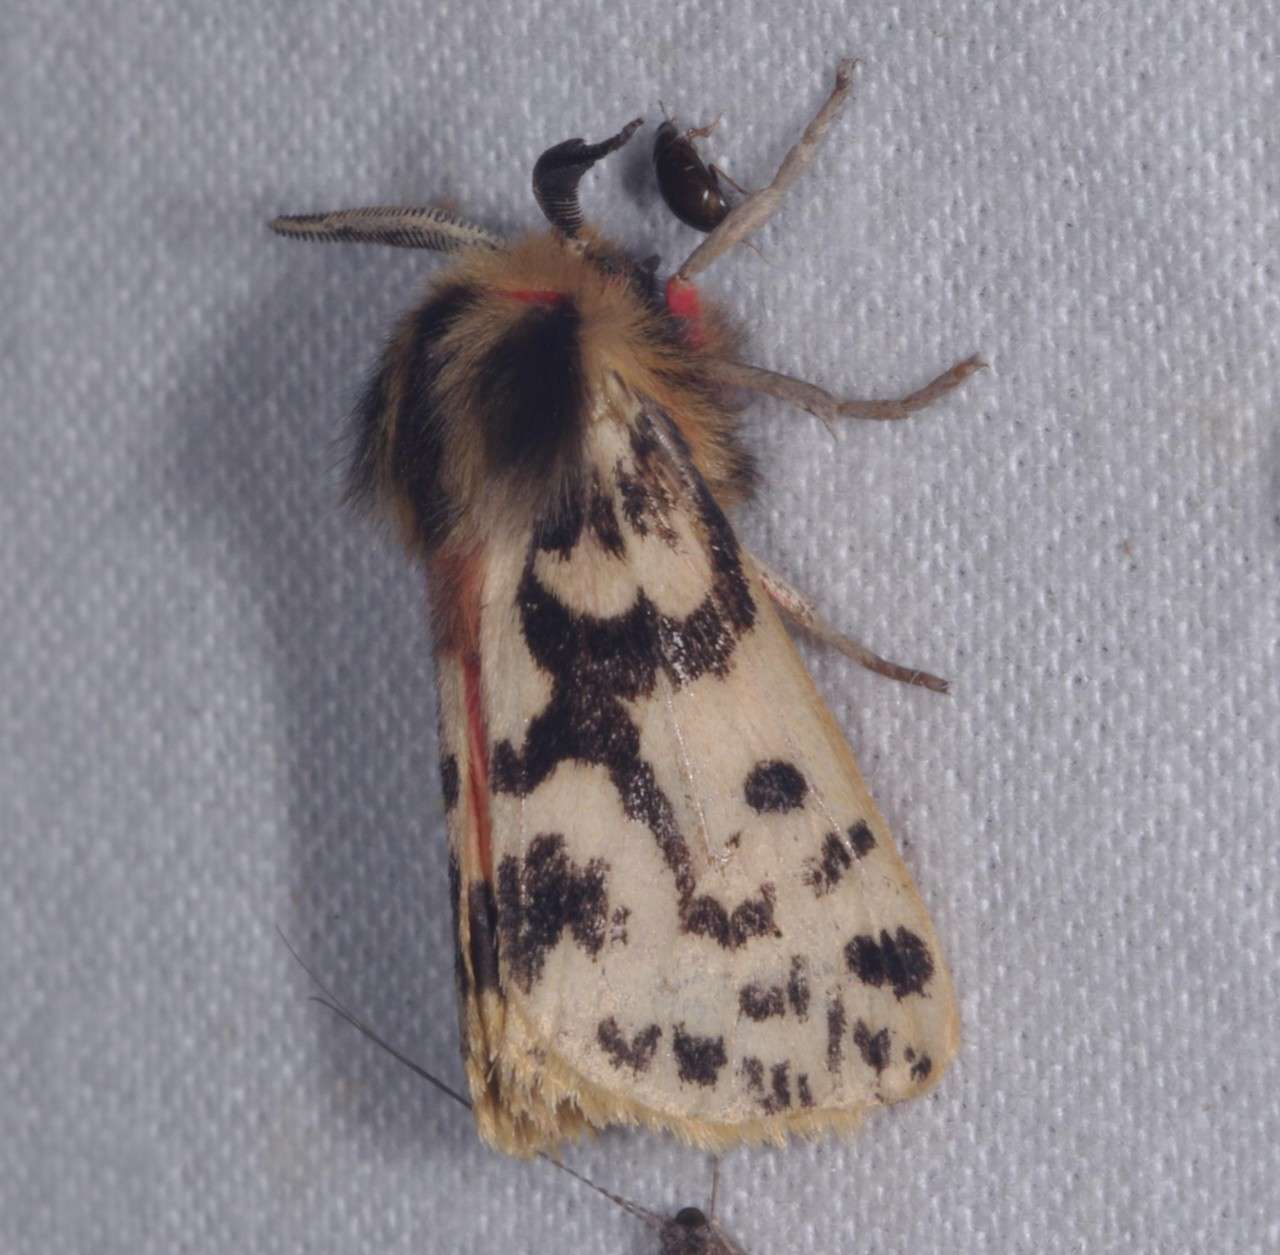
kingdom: Animalia
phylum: Arthropoda
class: Insecta
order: Lepidoptera
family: Erebidae
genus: Ardices
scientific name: Ardices curvata
